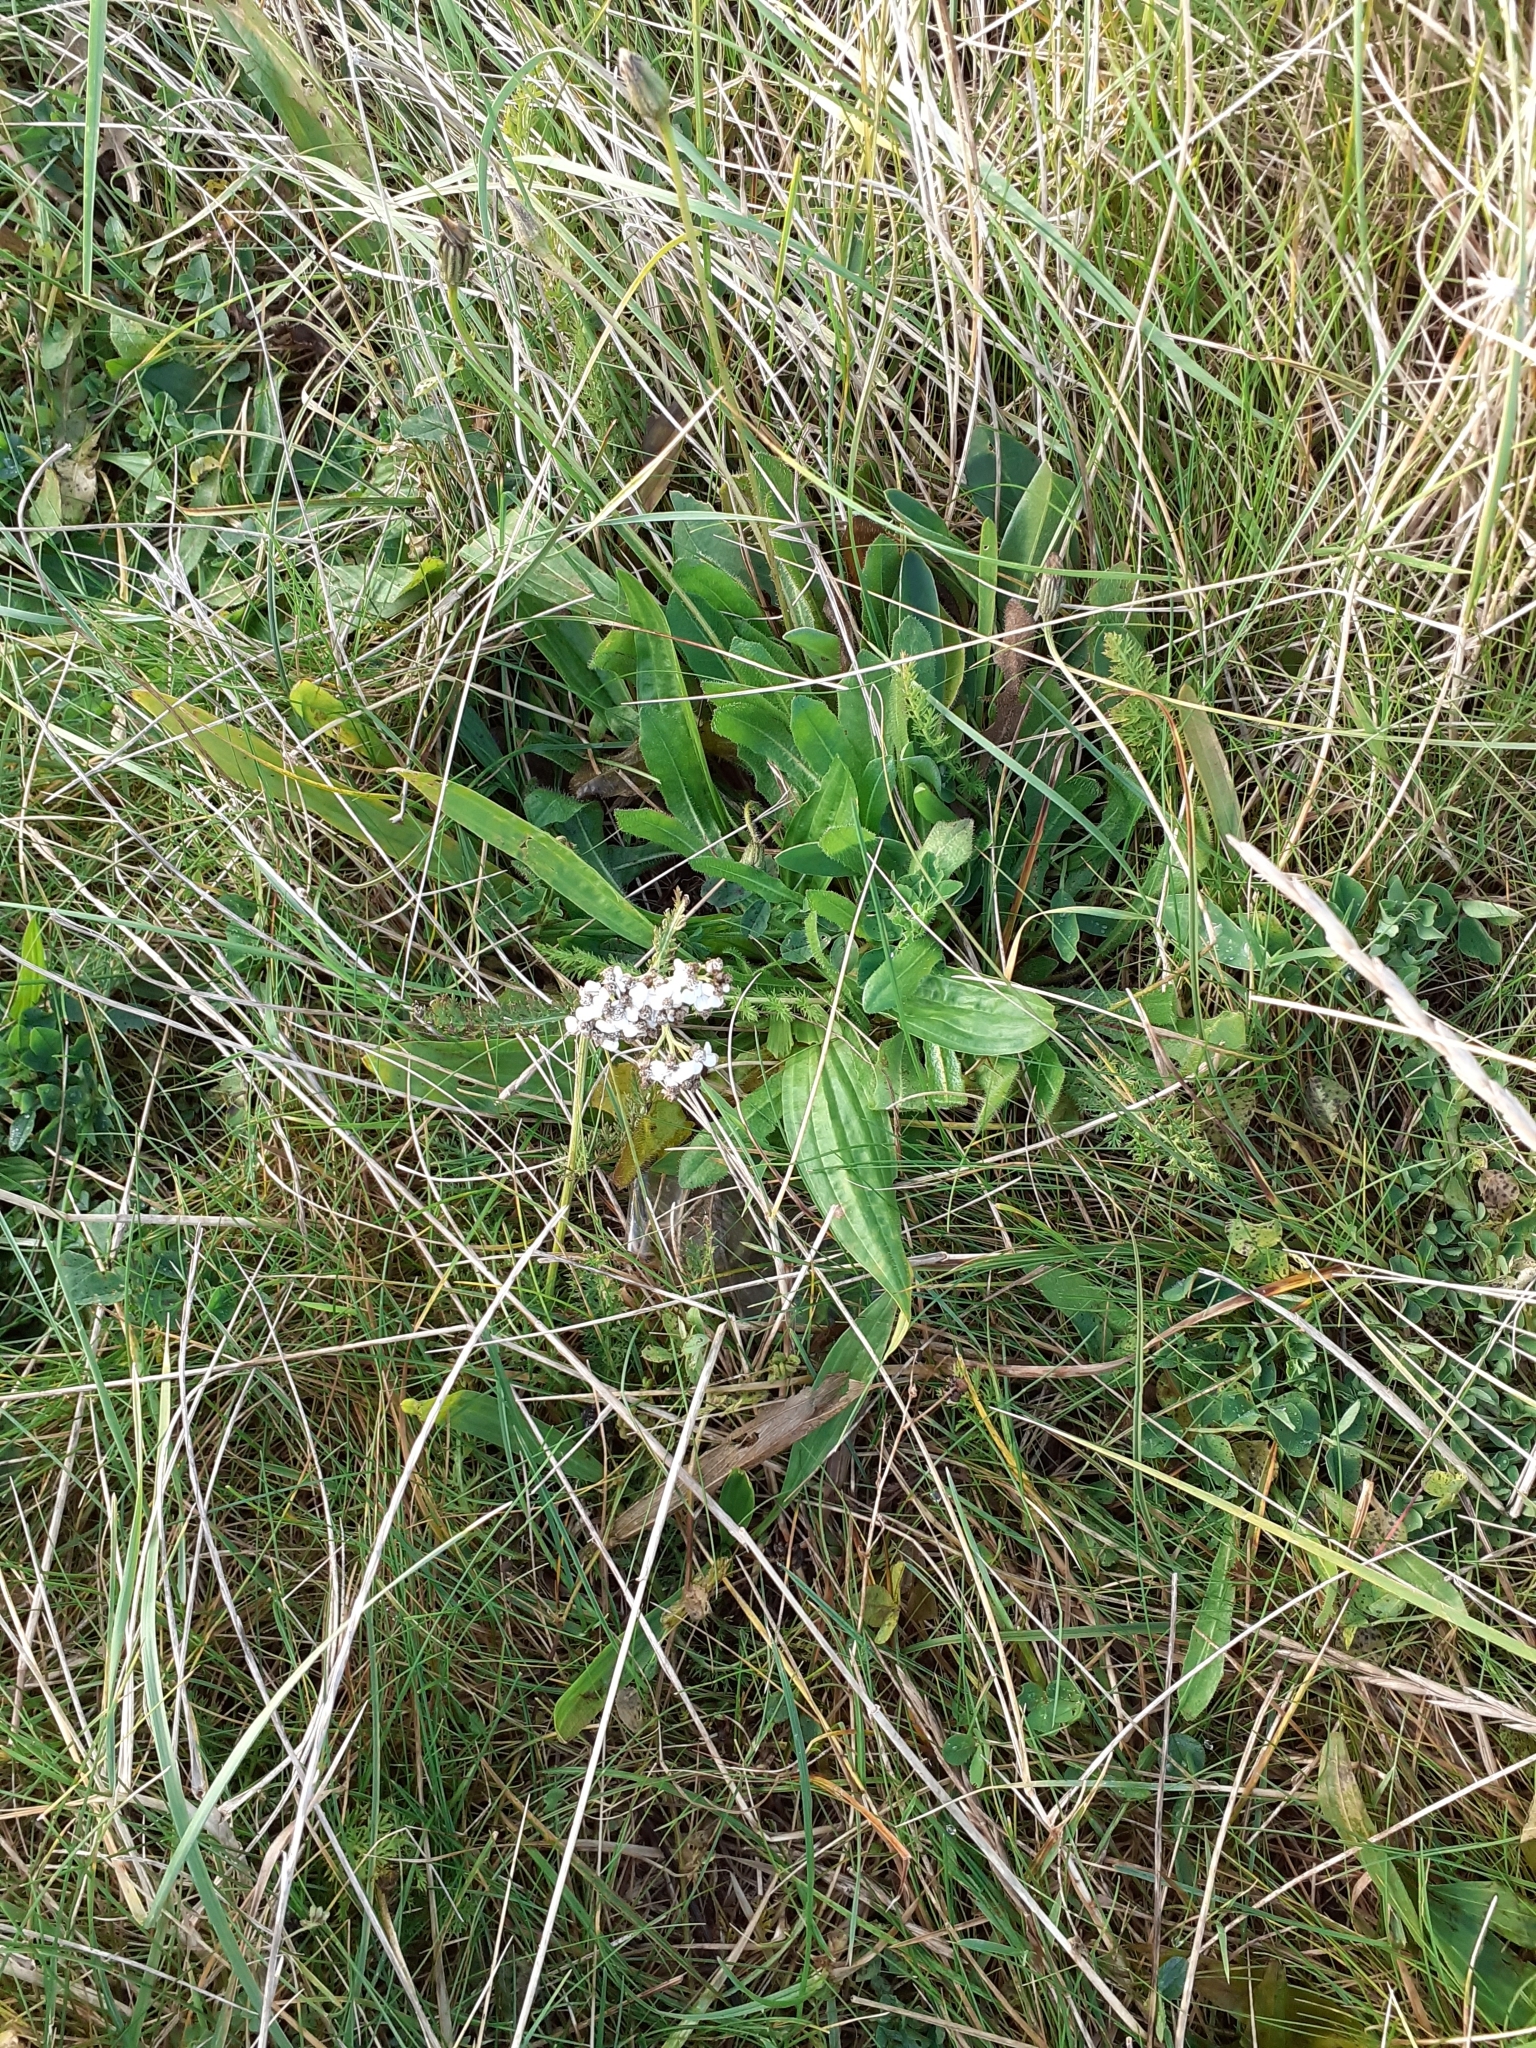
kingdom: Plantae
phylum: Tracheophyta
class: Magnoliopsida
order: Asterales
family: Asteraceae
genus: Achillea
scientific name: Achillea millefolium
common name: Yarrow
